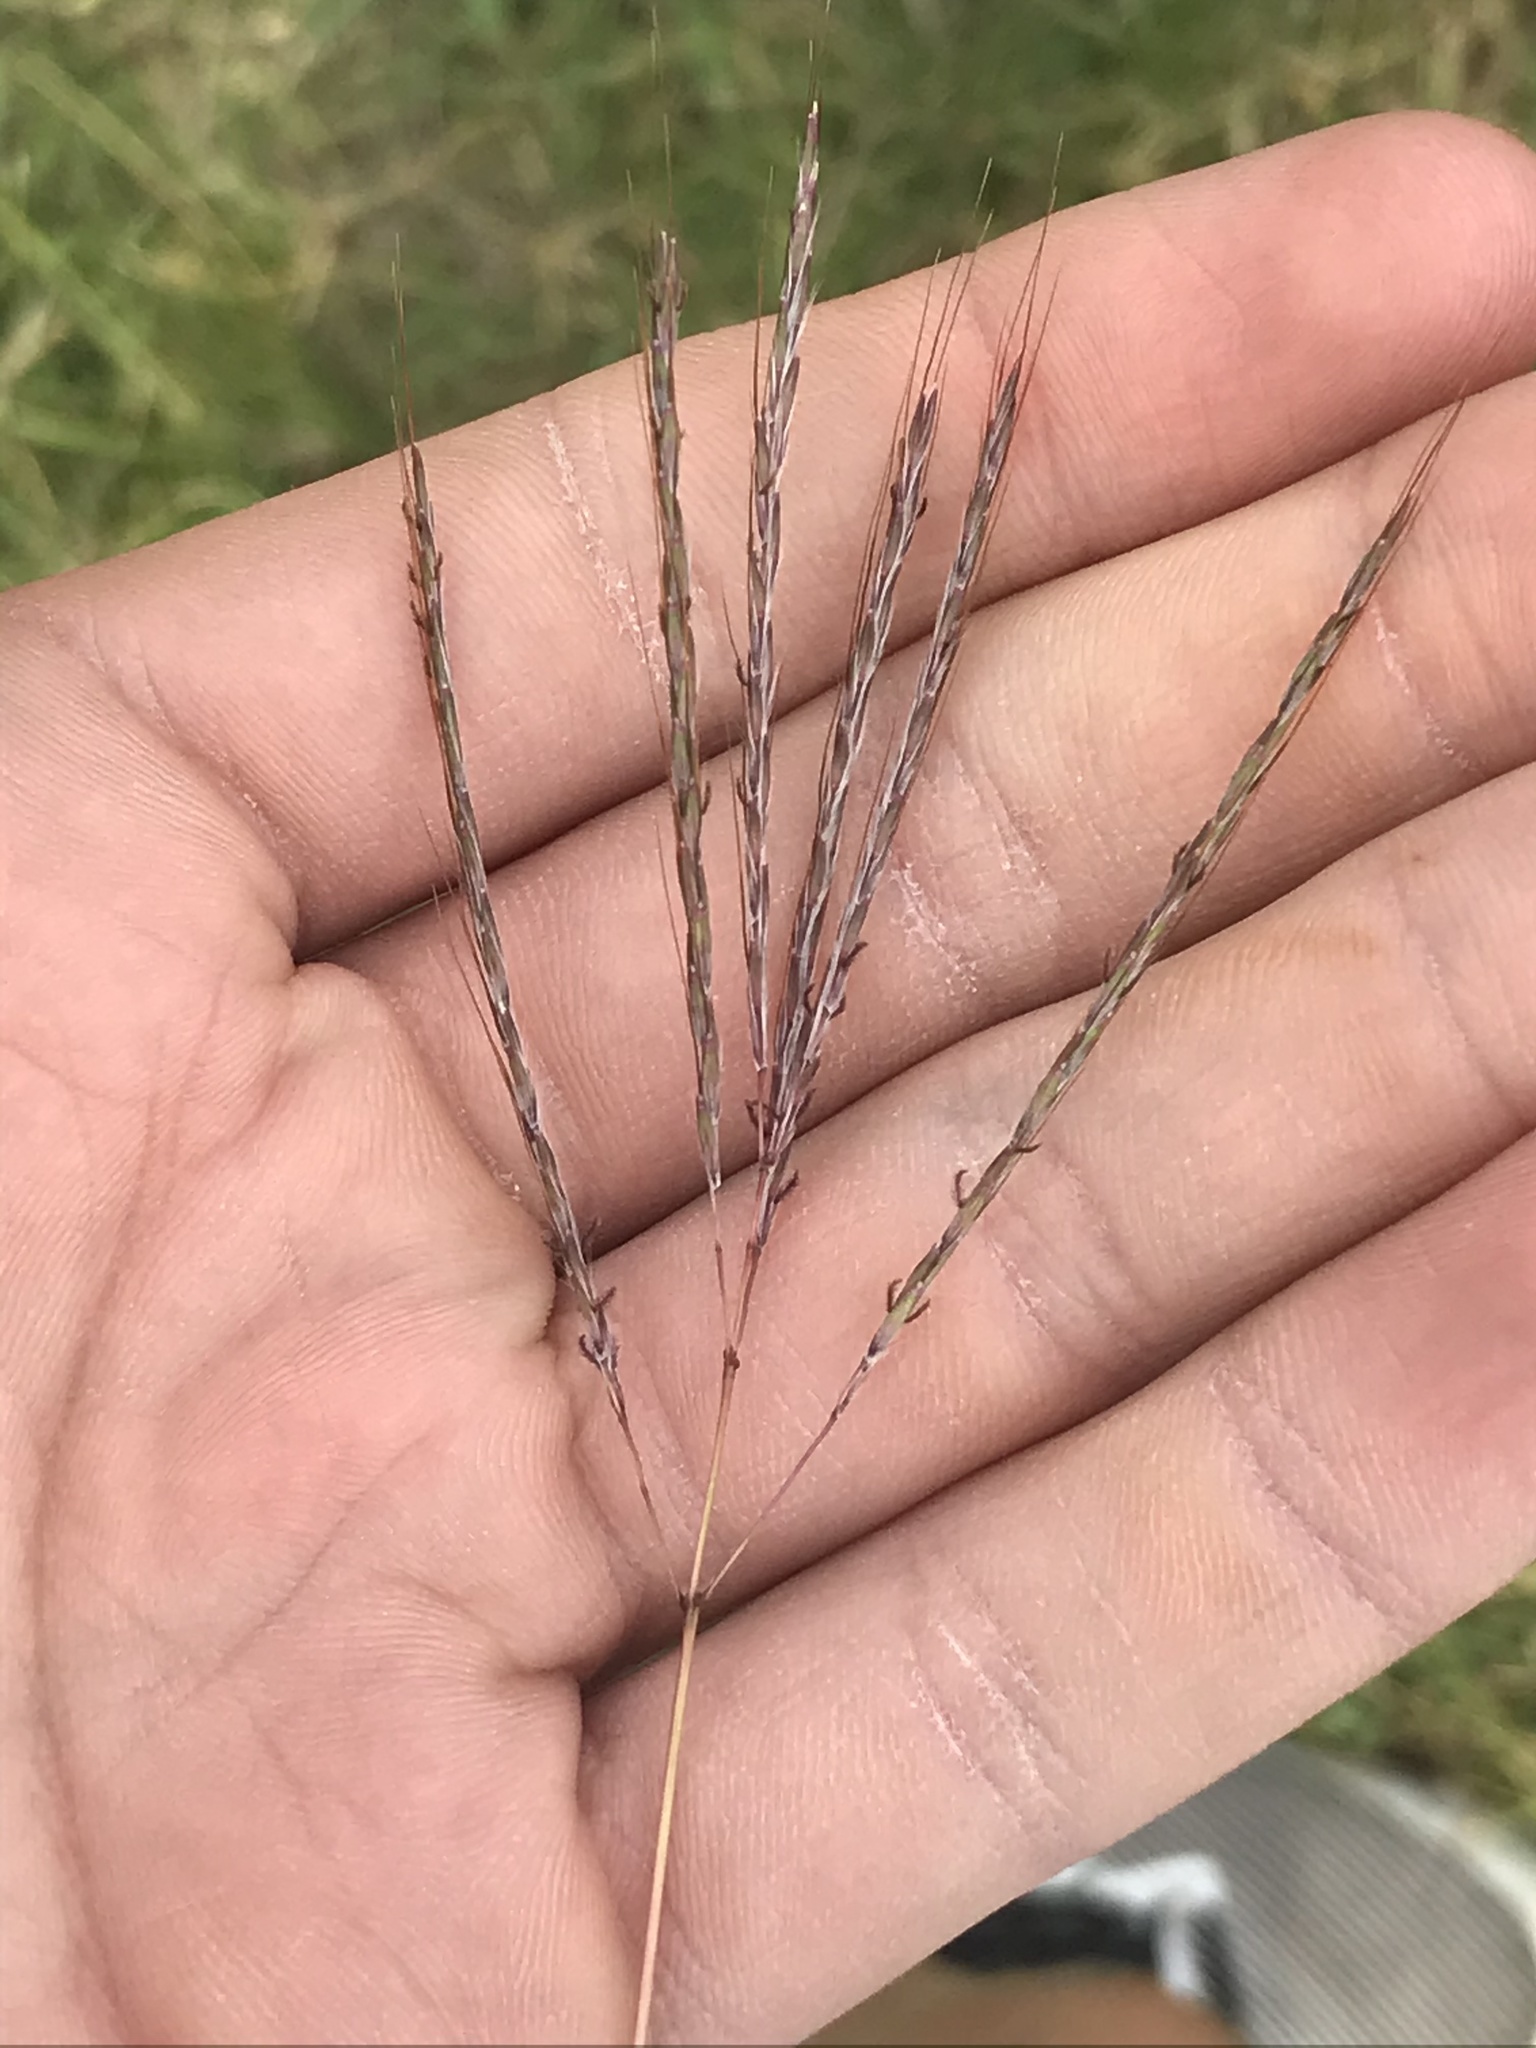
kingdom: Plantae
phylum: Tracheophyta
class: Liliopsida
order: Poales
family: Poaceae
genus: Bothriochloa
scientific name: Bothriochloa ischaemum
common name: Yellow bluestem
